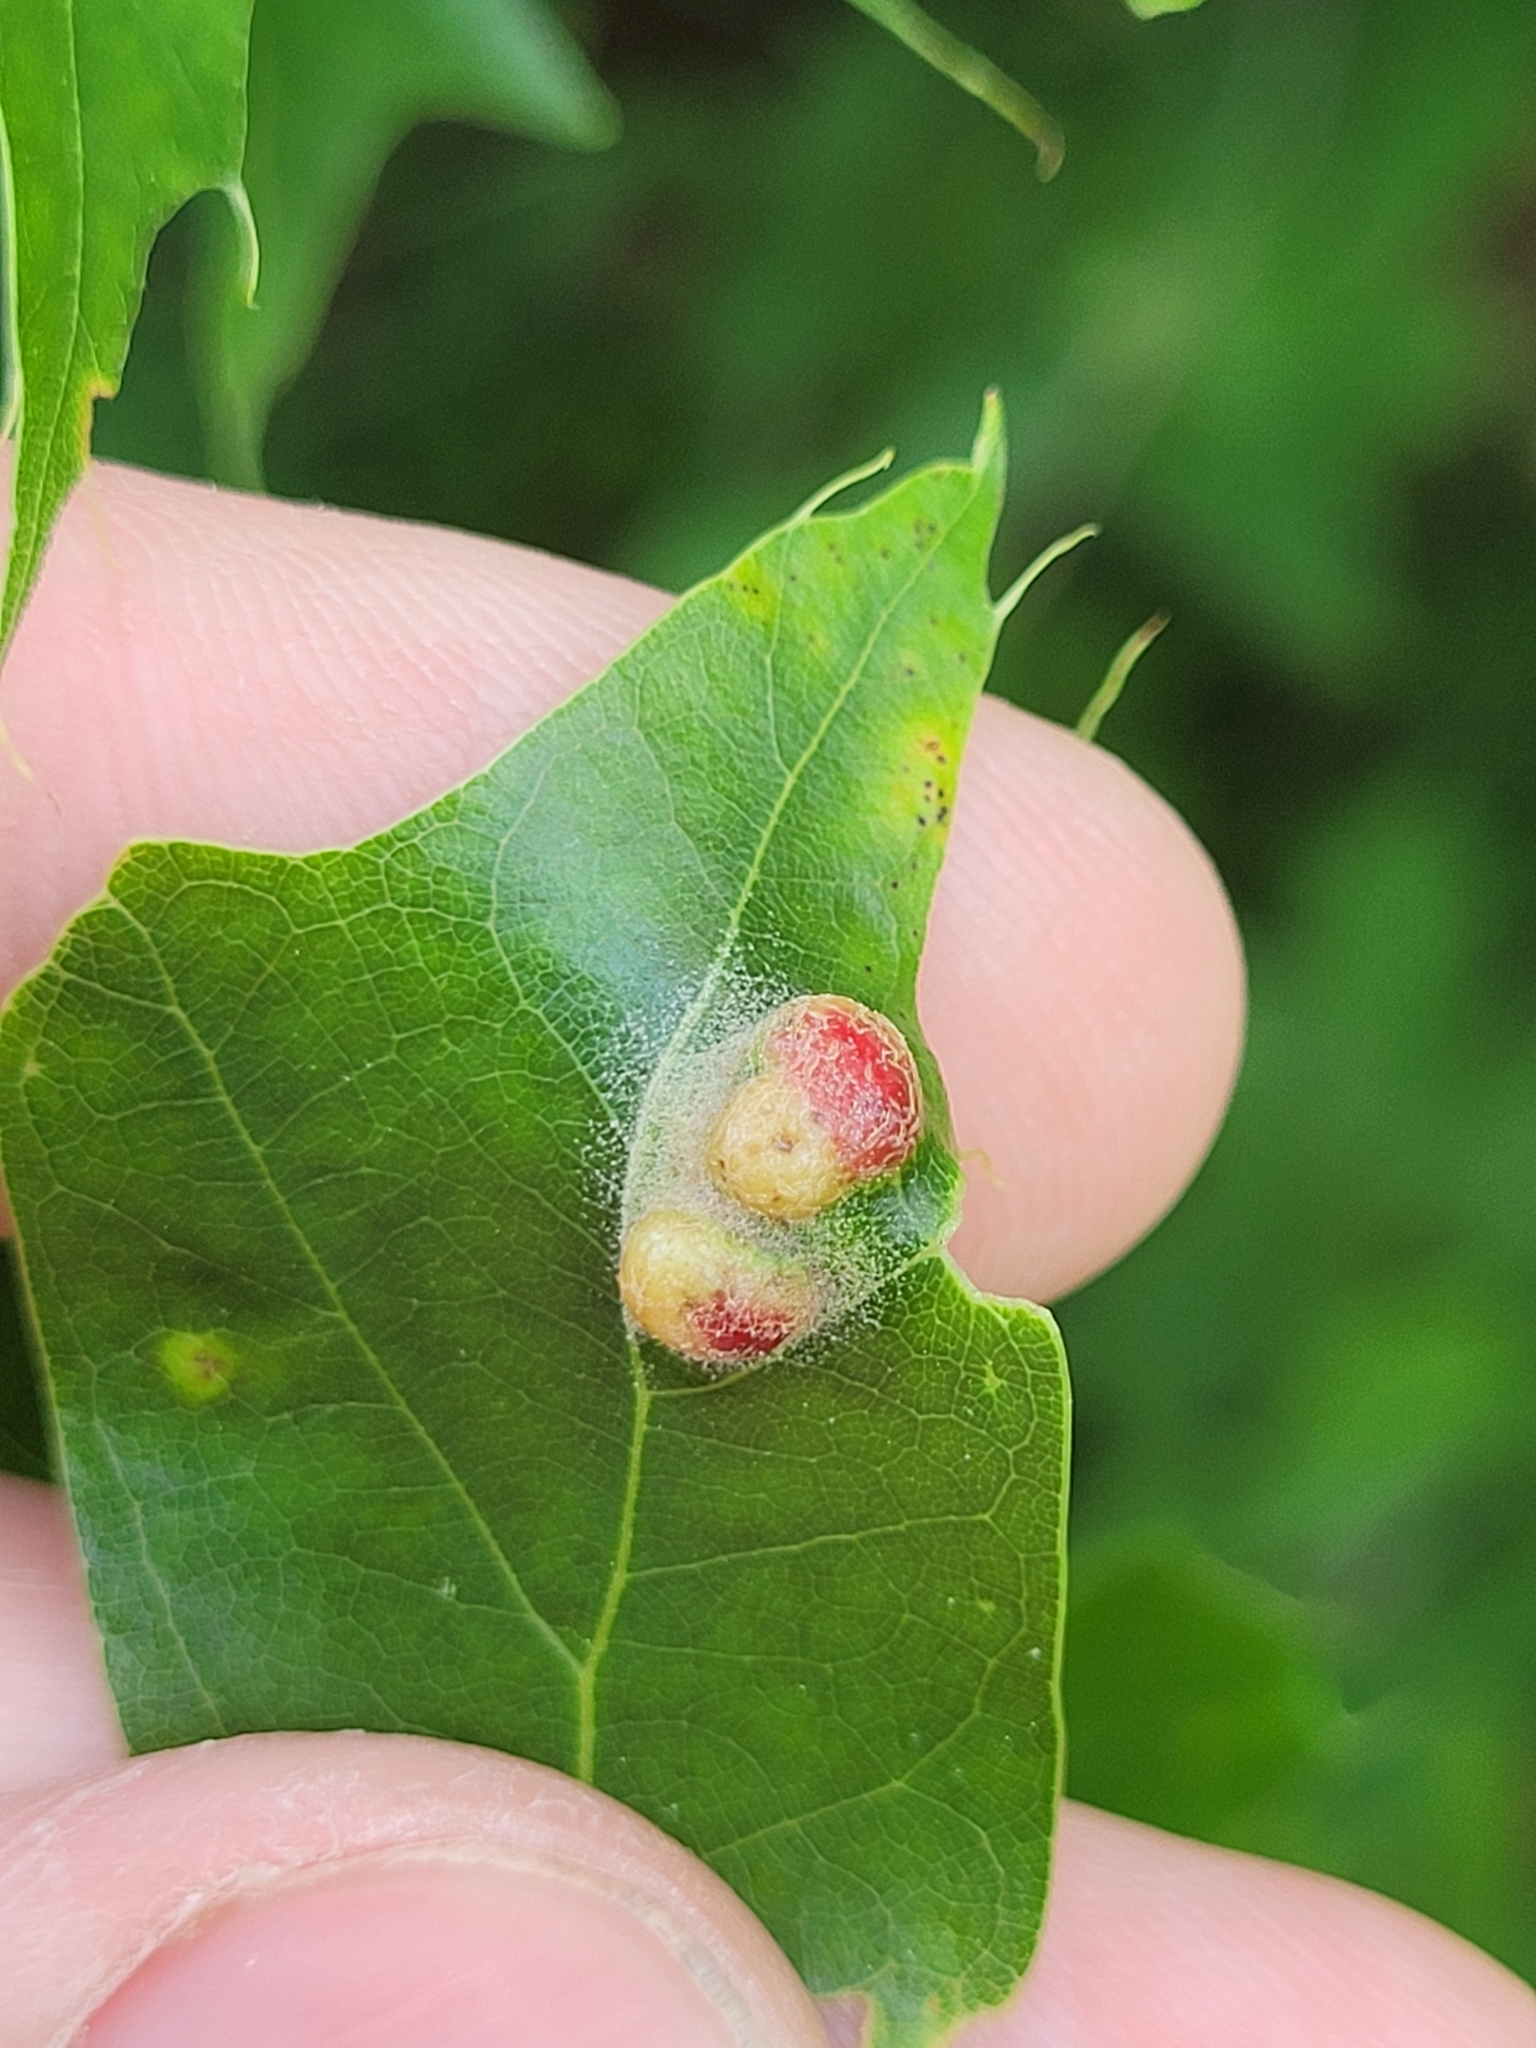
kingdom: Animalia
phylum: Arthropoda
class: Arachnida
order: Trombidiformes
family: Eriophyidae
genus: Aceria
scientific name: Aceria
